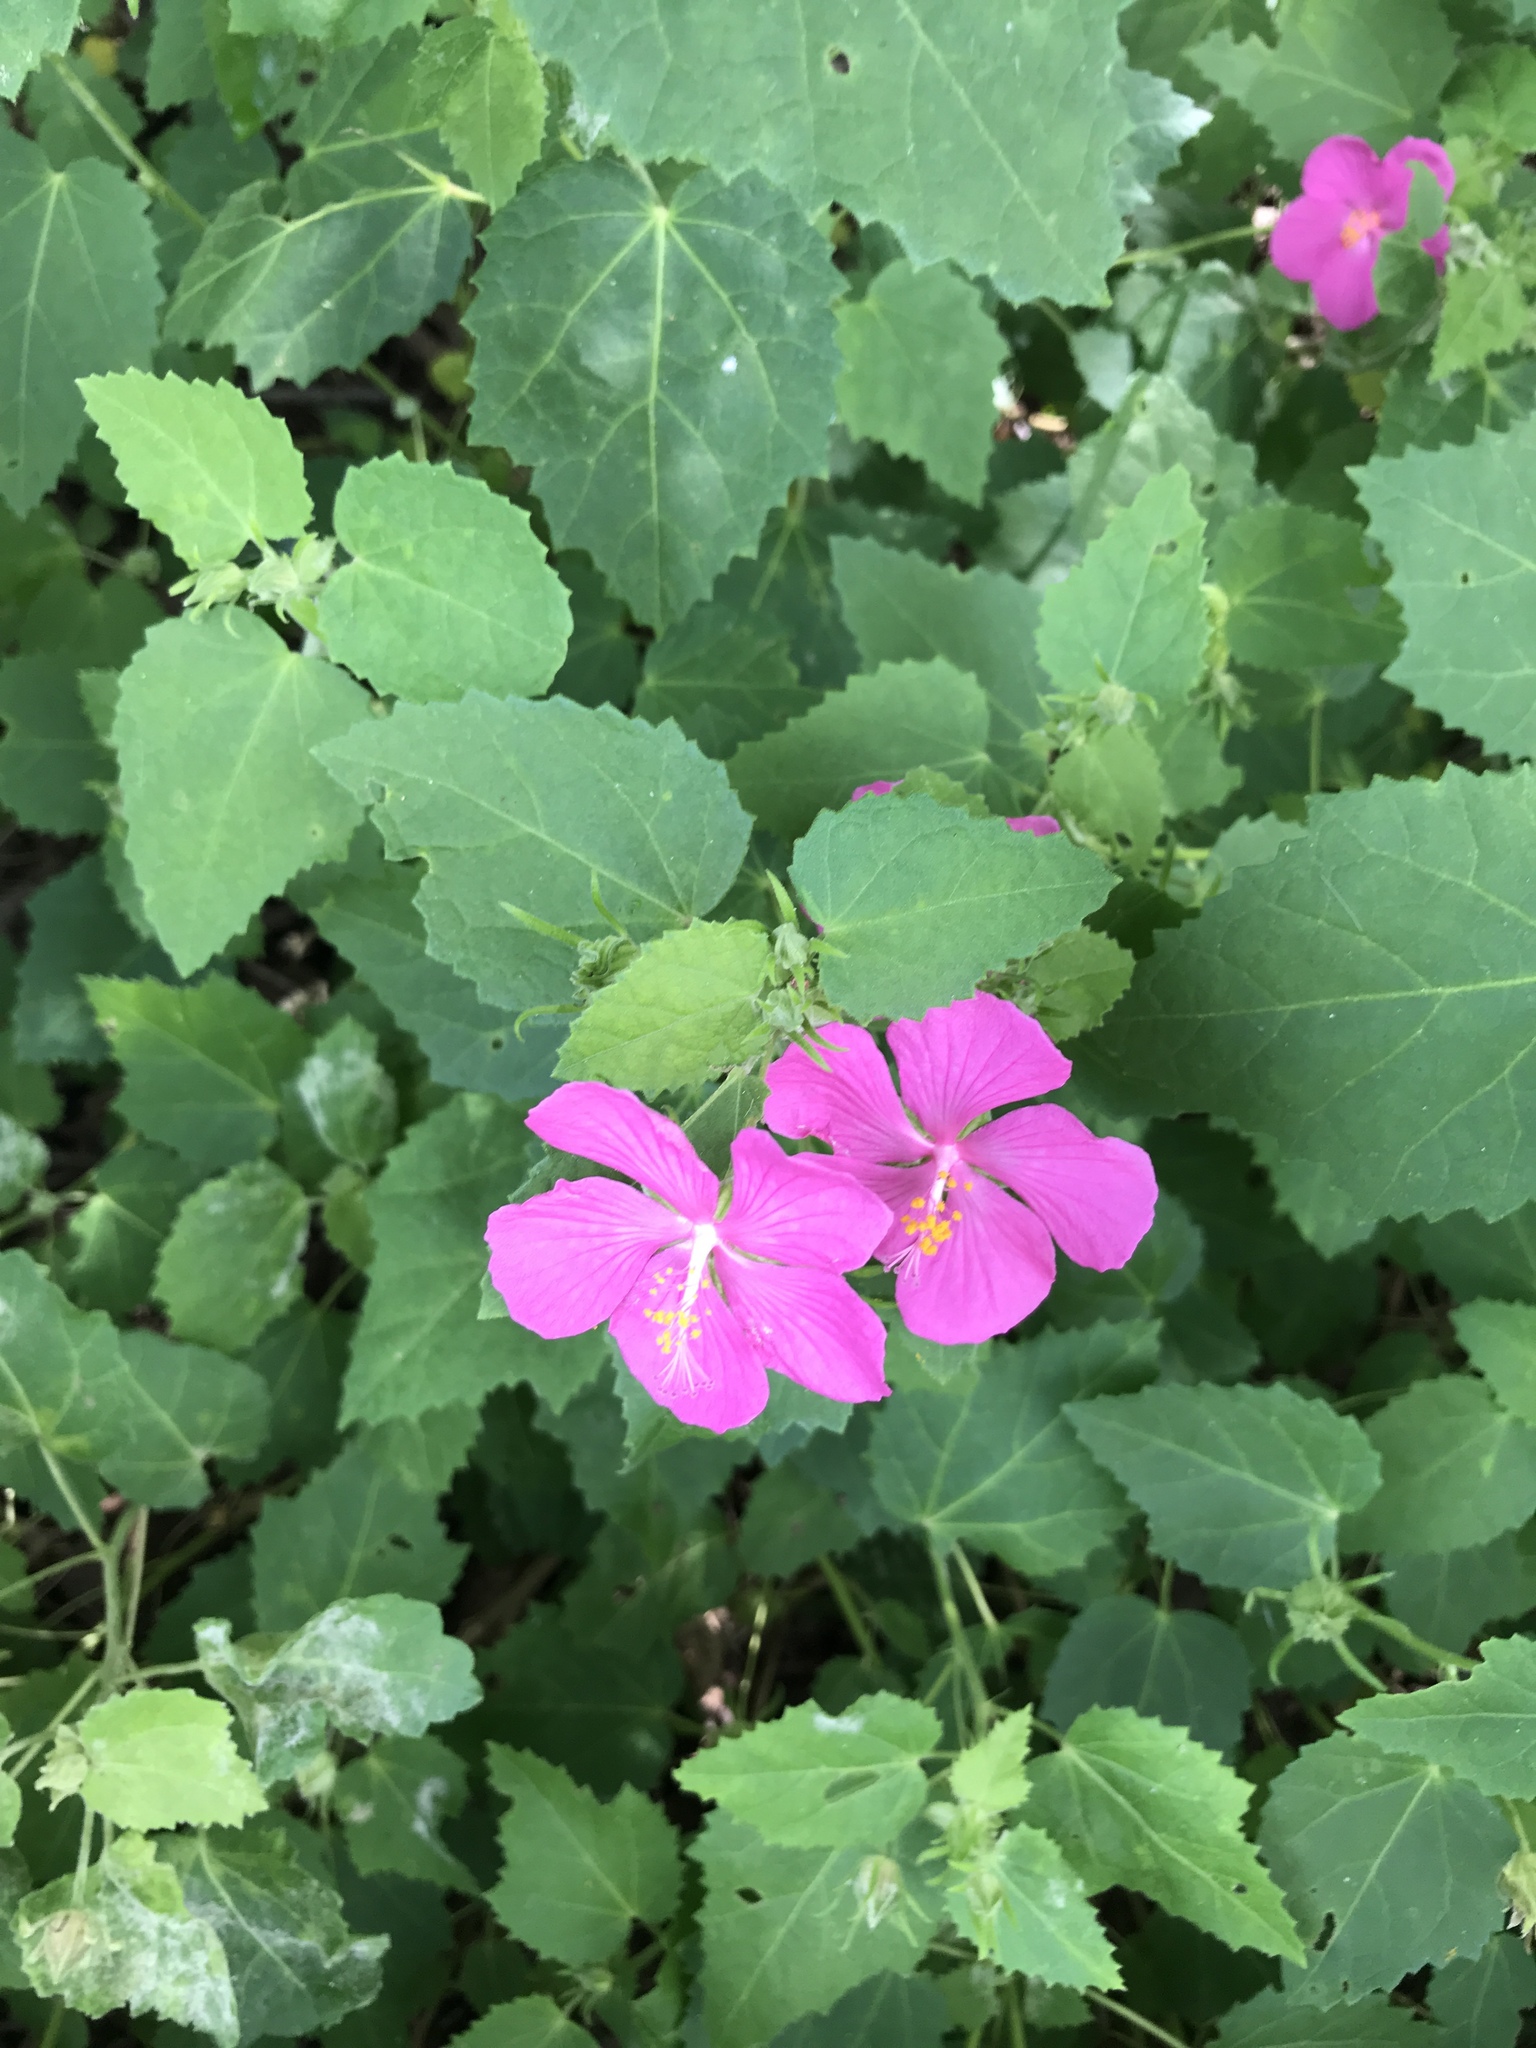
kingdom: Plantae
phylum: Tracheophyta
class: Magnoliopsida
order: Malvales
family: Malvaceae
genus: Pavonia
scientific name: Pavonia lasiopetala
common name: Texas swamp-mallow
